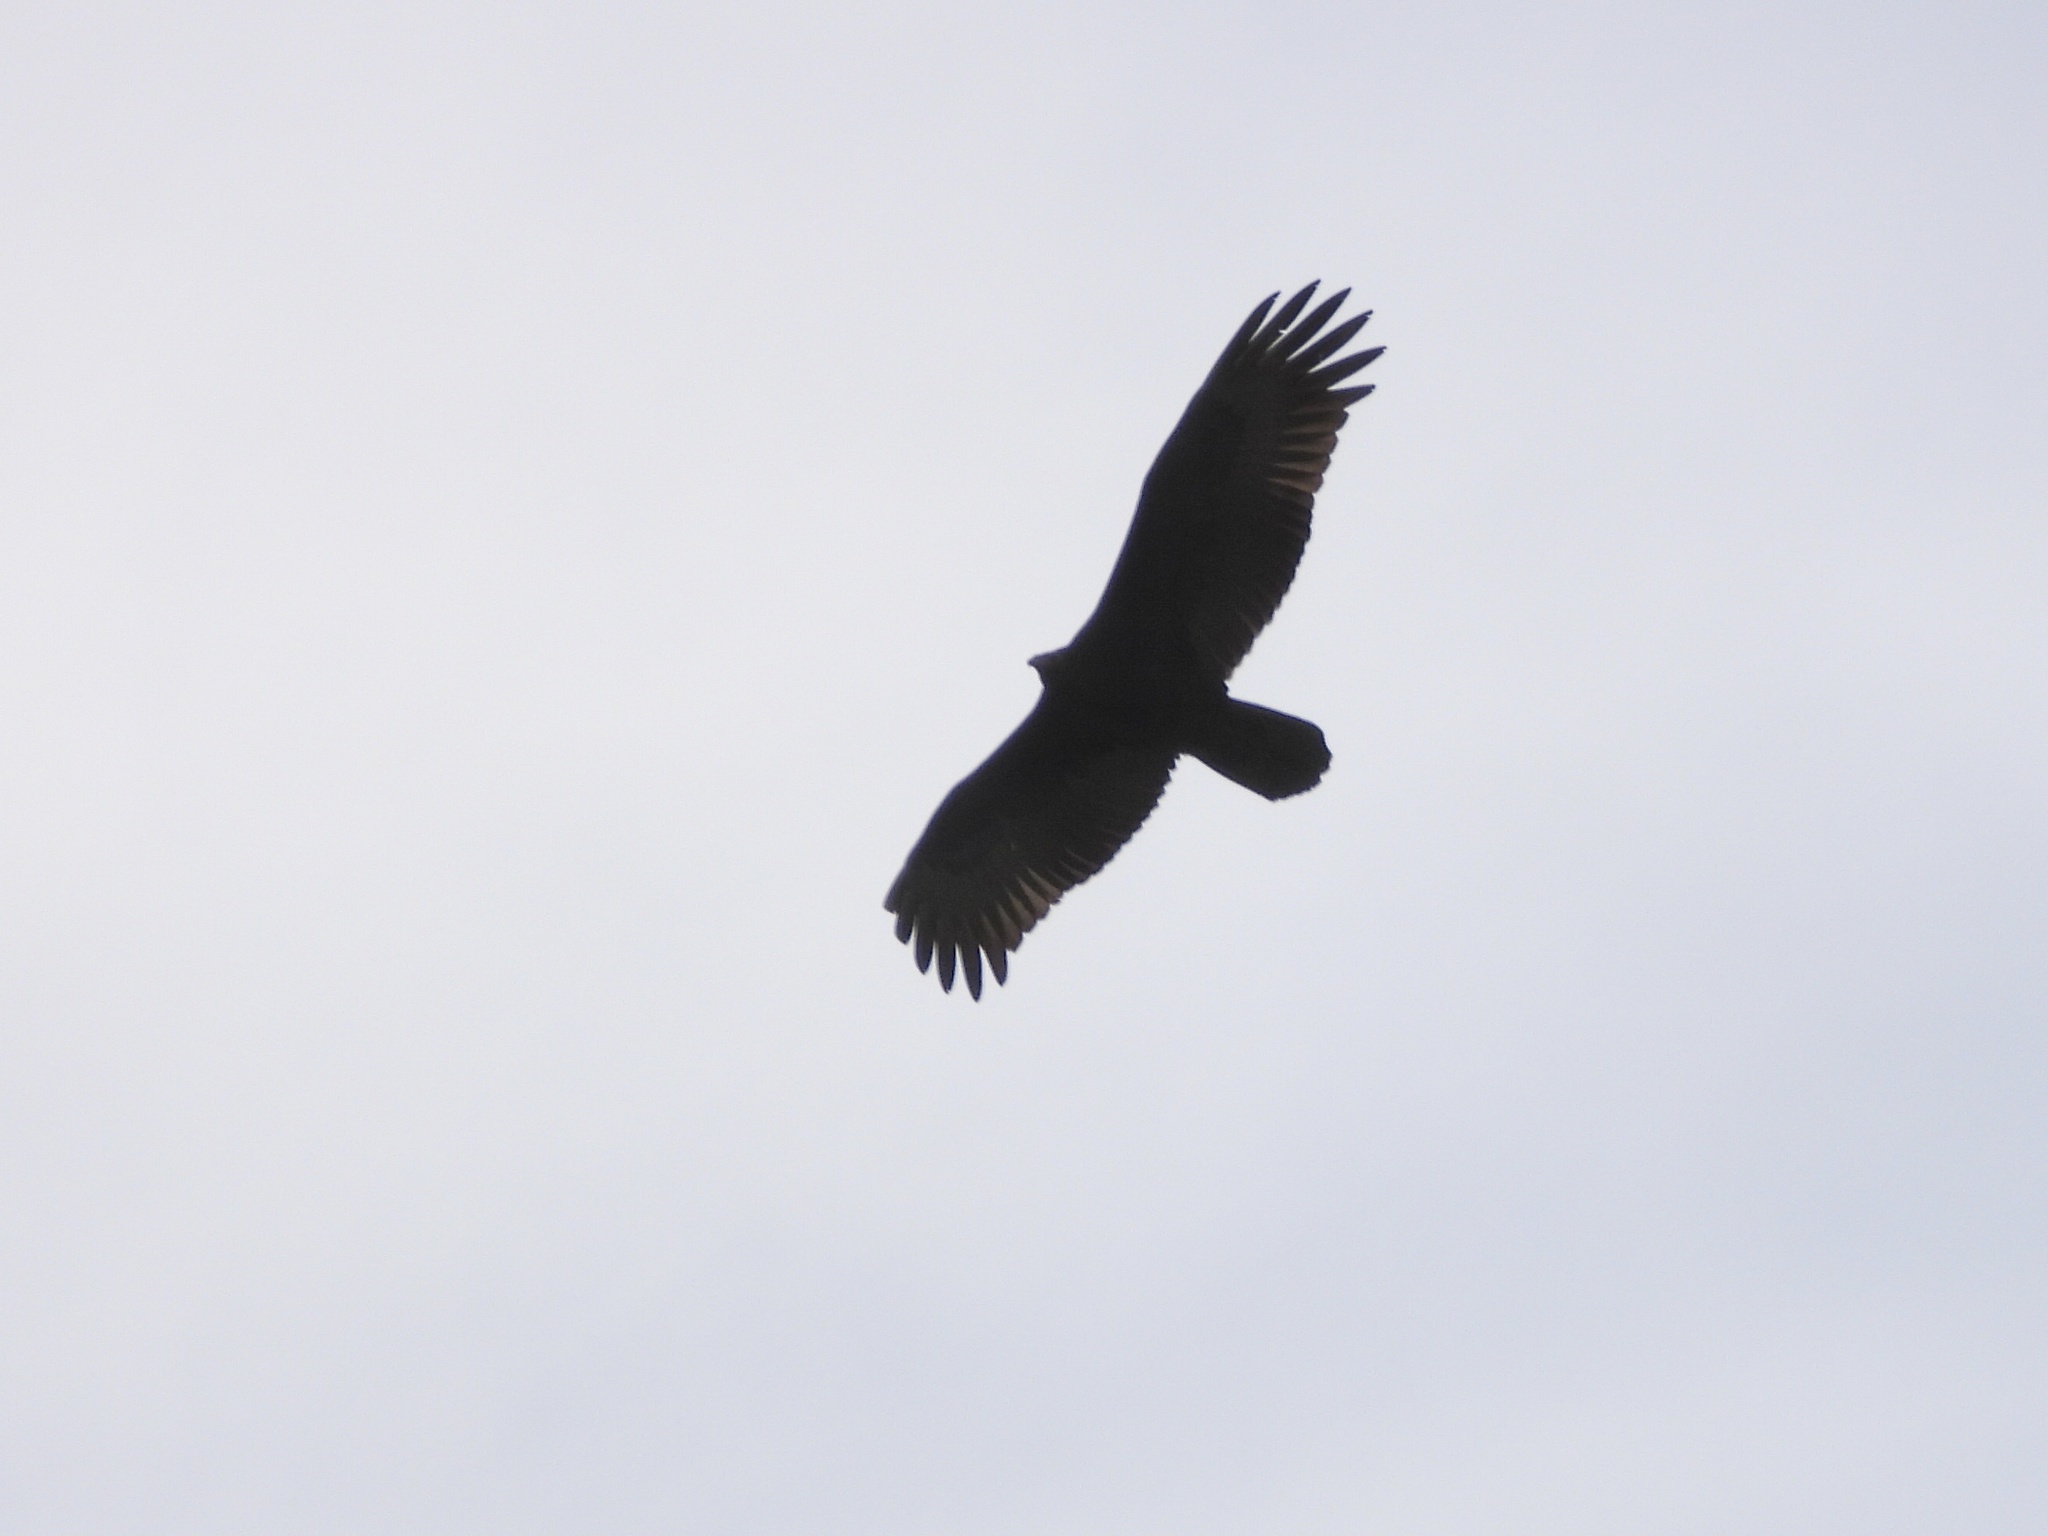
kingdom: Animalia
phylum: Chordata
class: Aves
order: Accipitriformes
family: Cathartidae
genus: Cathartes
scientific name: Cathartes aura
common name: Turkey vulture
